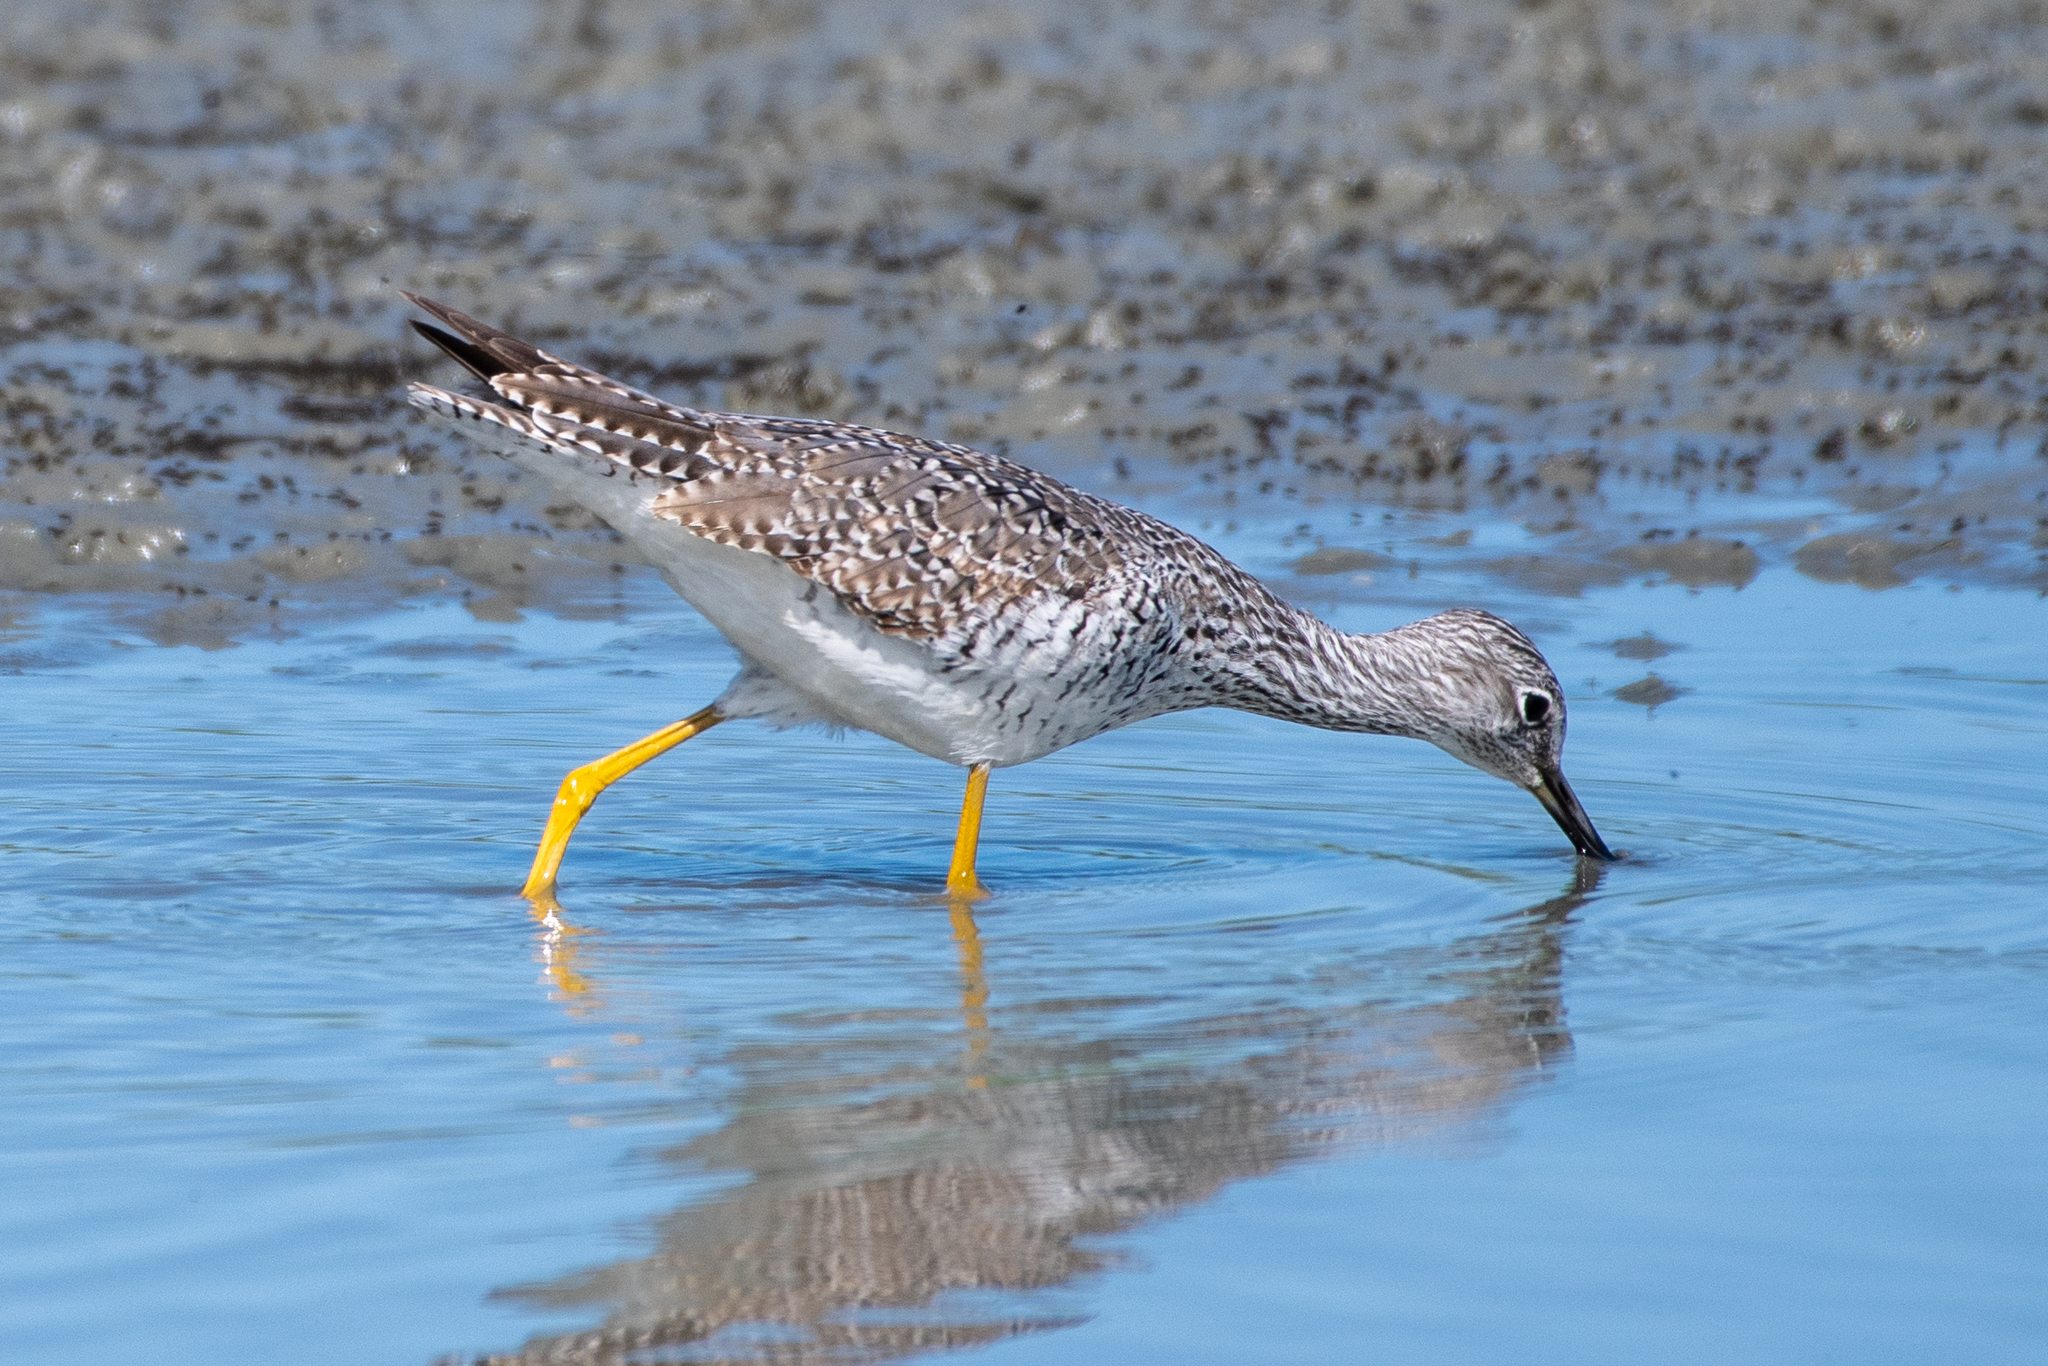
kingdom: Animalia
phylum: Chordata
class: Aves
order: Charadriiformes
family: Scolopacidae
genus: Tringa
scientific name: Tringa melanoleuca
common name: Greater yellowlegs
